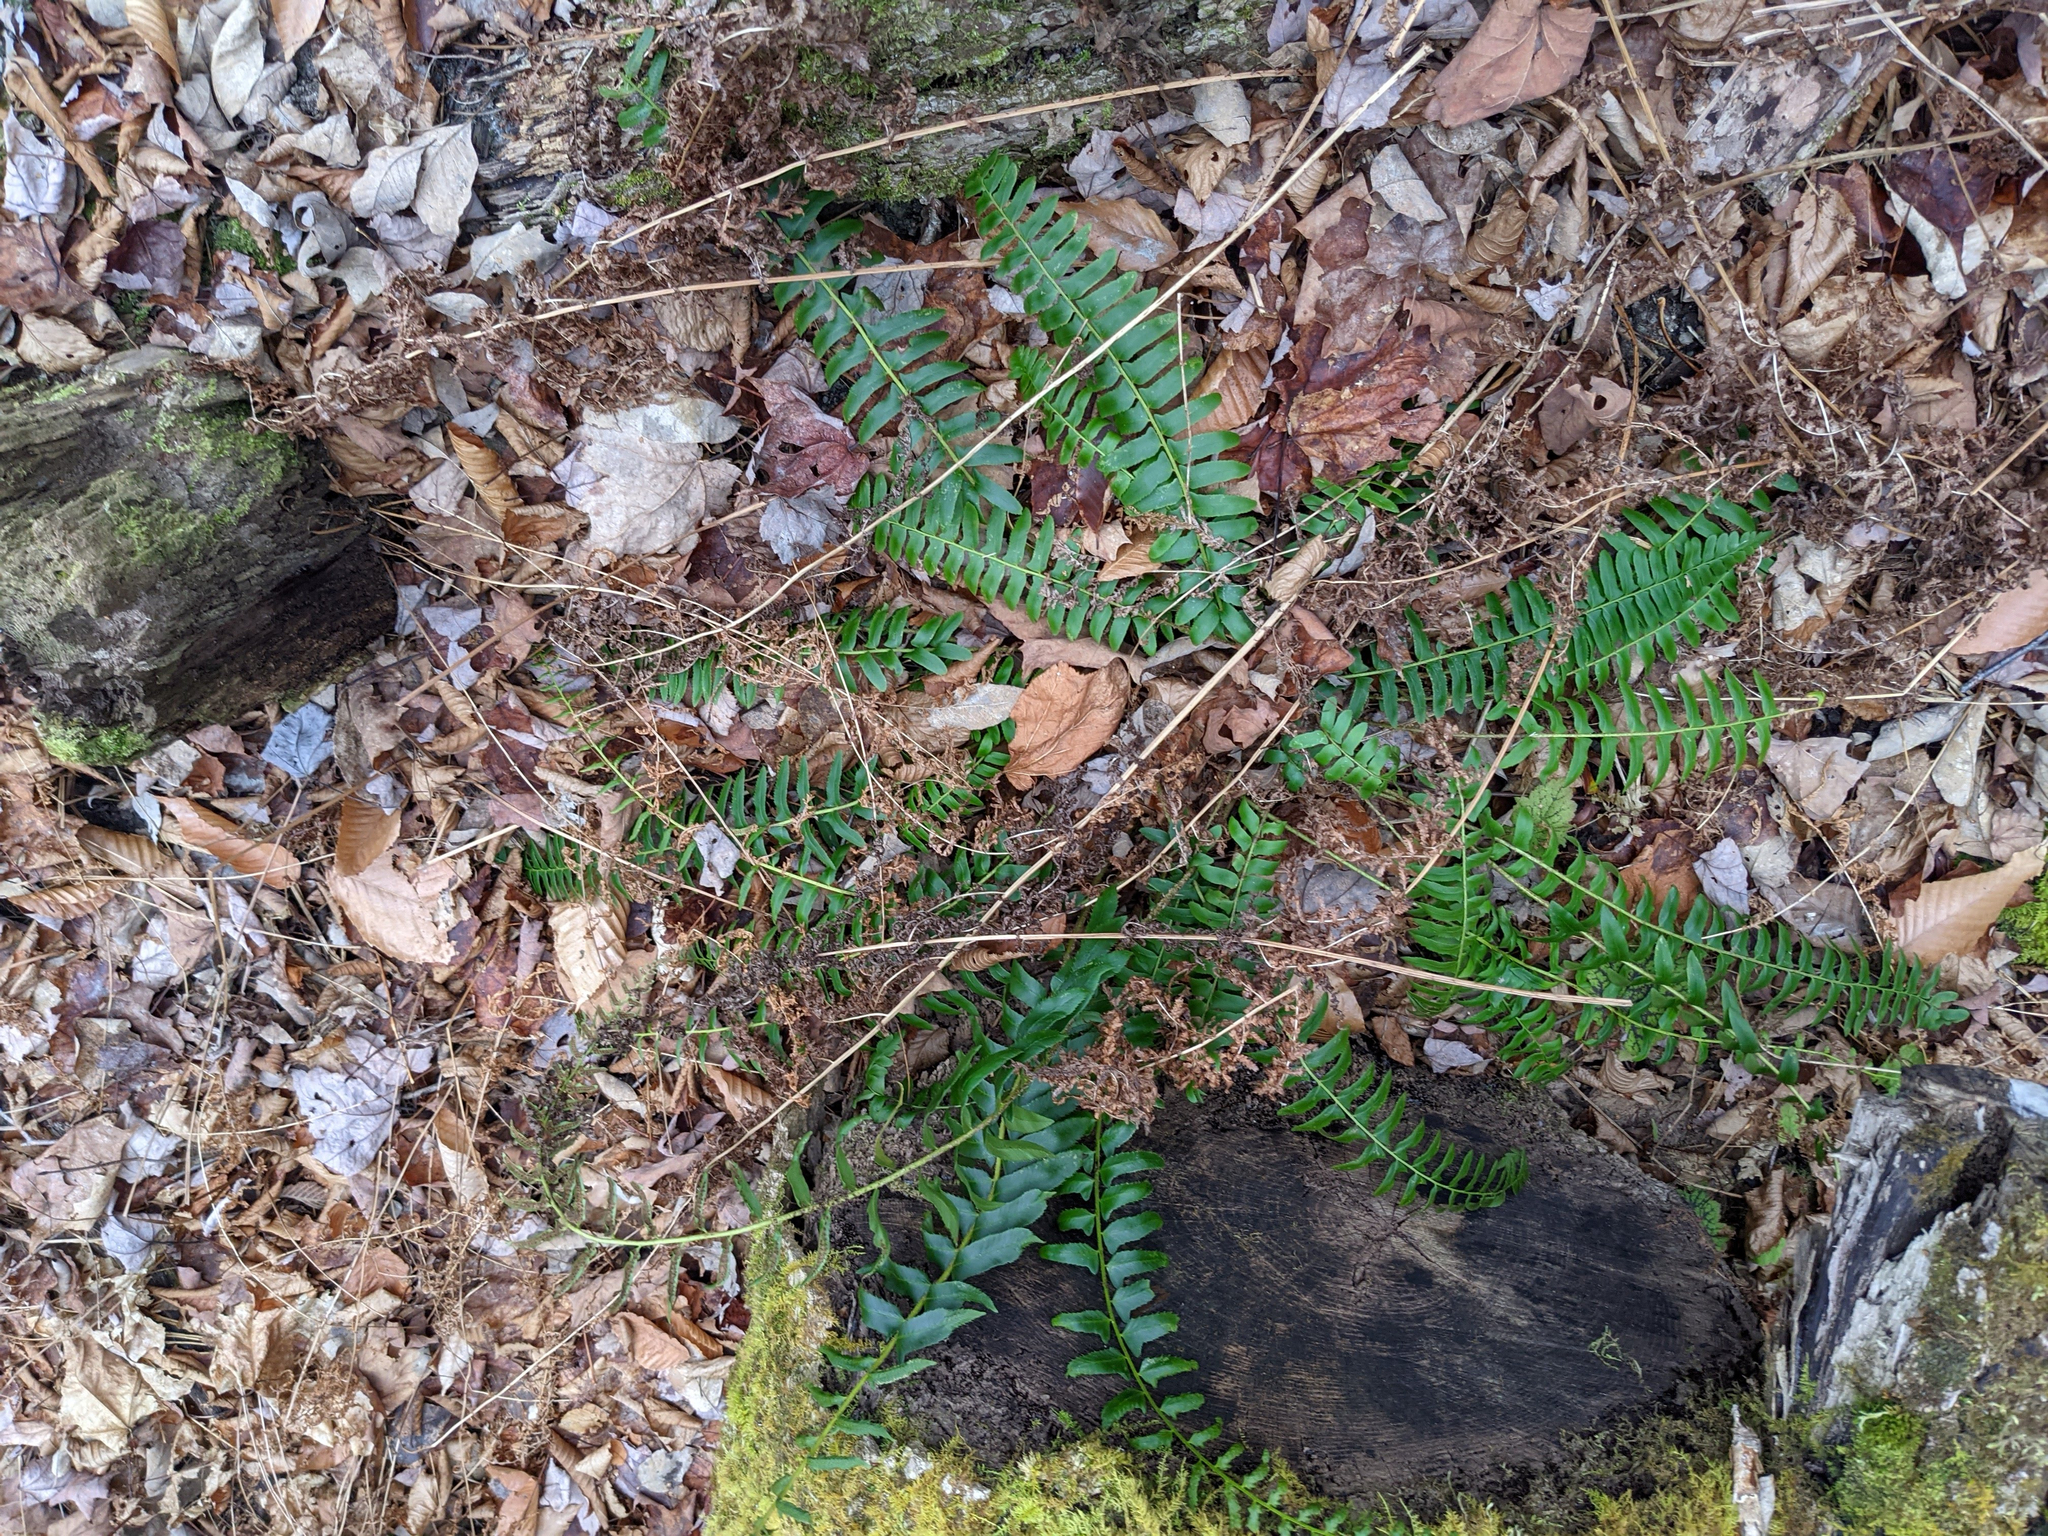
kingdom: Plantae
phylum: Tracheophyta
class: Polypodiopsida
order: Polypodiales
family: Dryopteridaceae
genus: Polystichum
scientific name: Polystichum acrostichoides
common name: Christmas fern
